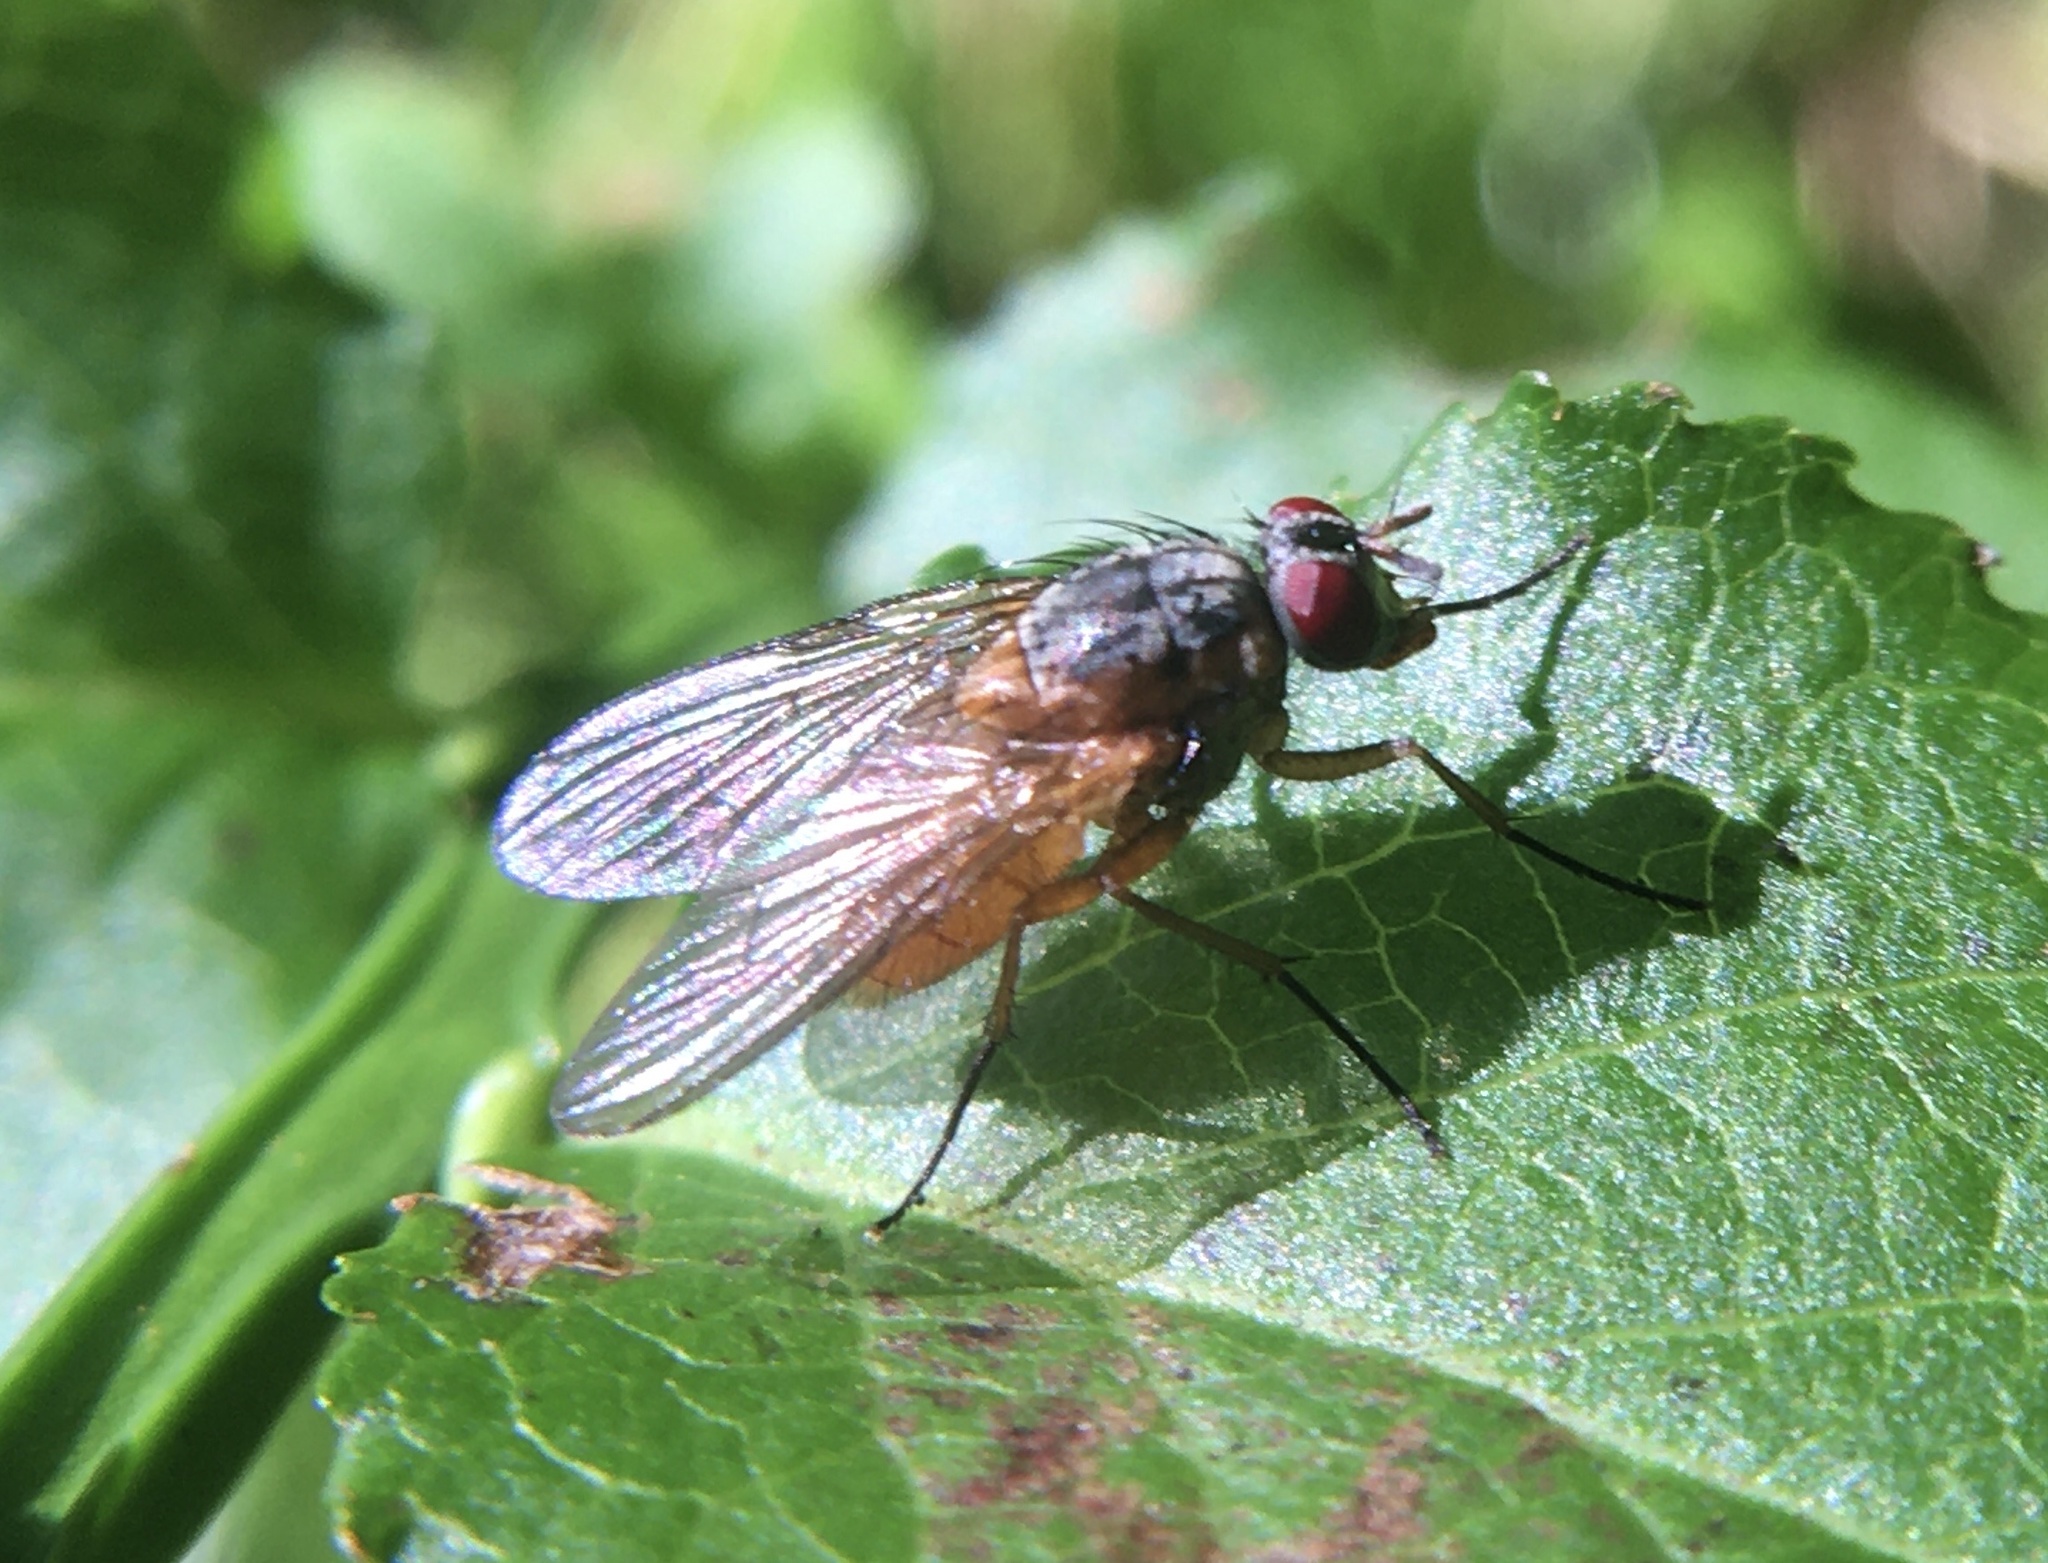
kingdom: Animalia
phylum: Arthropoda
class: Insecta
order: Diptera
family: Muscidae
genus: Phaonia
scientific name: Phaonia rufiventris
